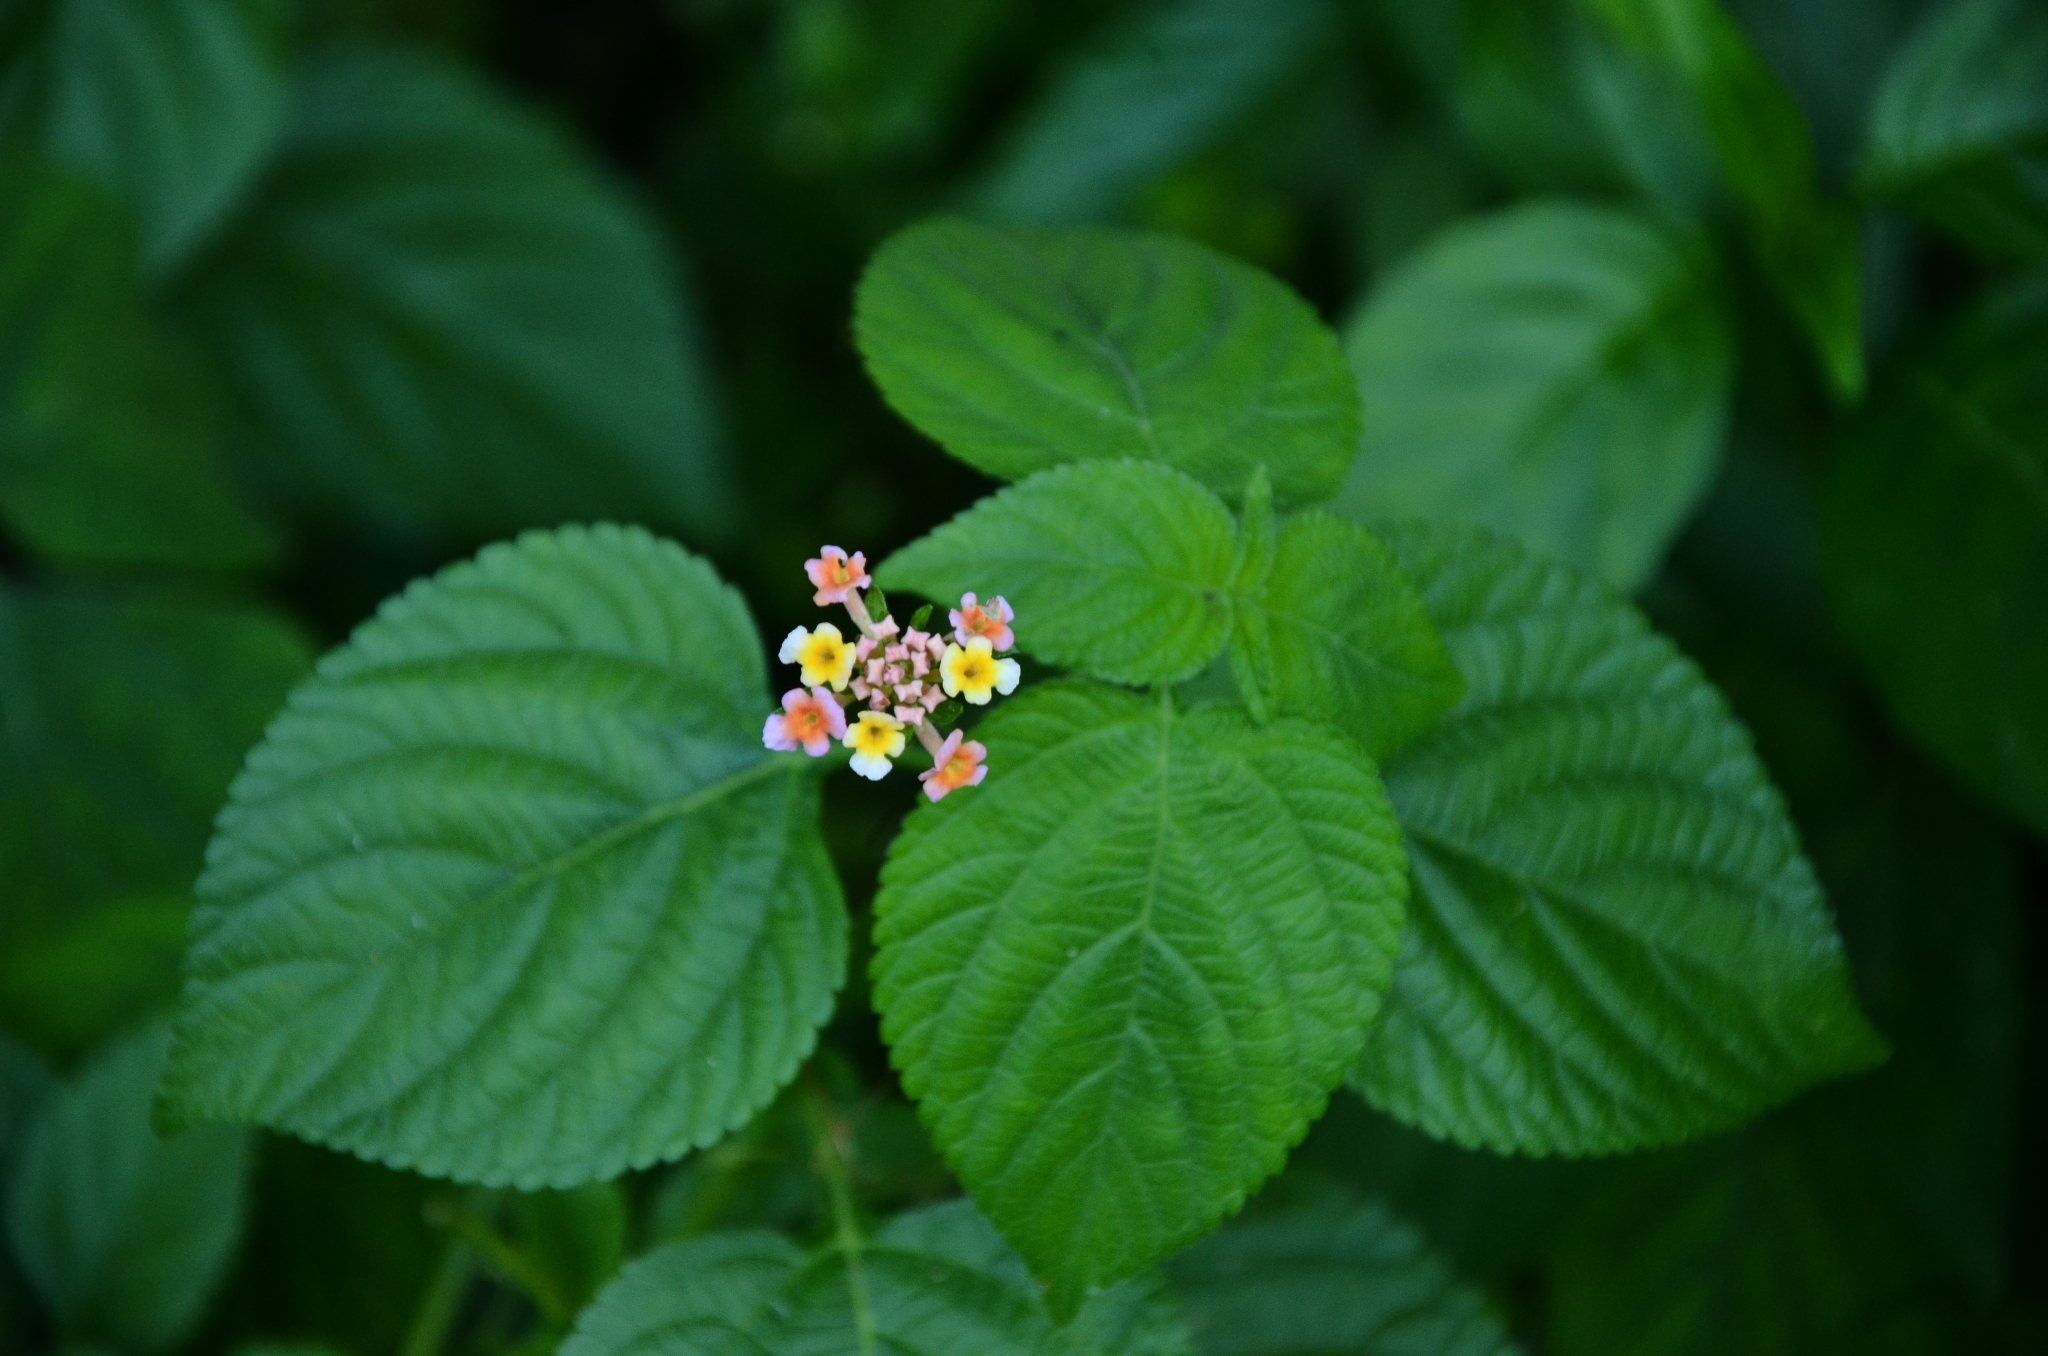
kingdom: Plantae
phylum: Tracheophyta
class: Magnoliopsida
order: Lamiales
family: Verbenaceae
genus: Lantana
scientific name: Lantana camara
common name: Lantana
